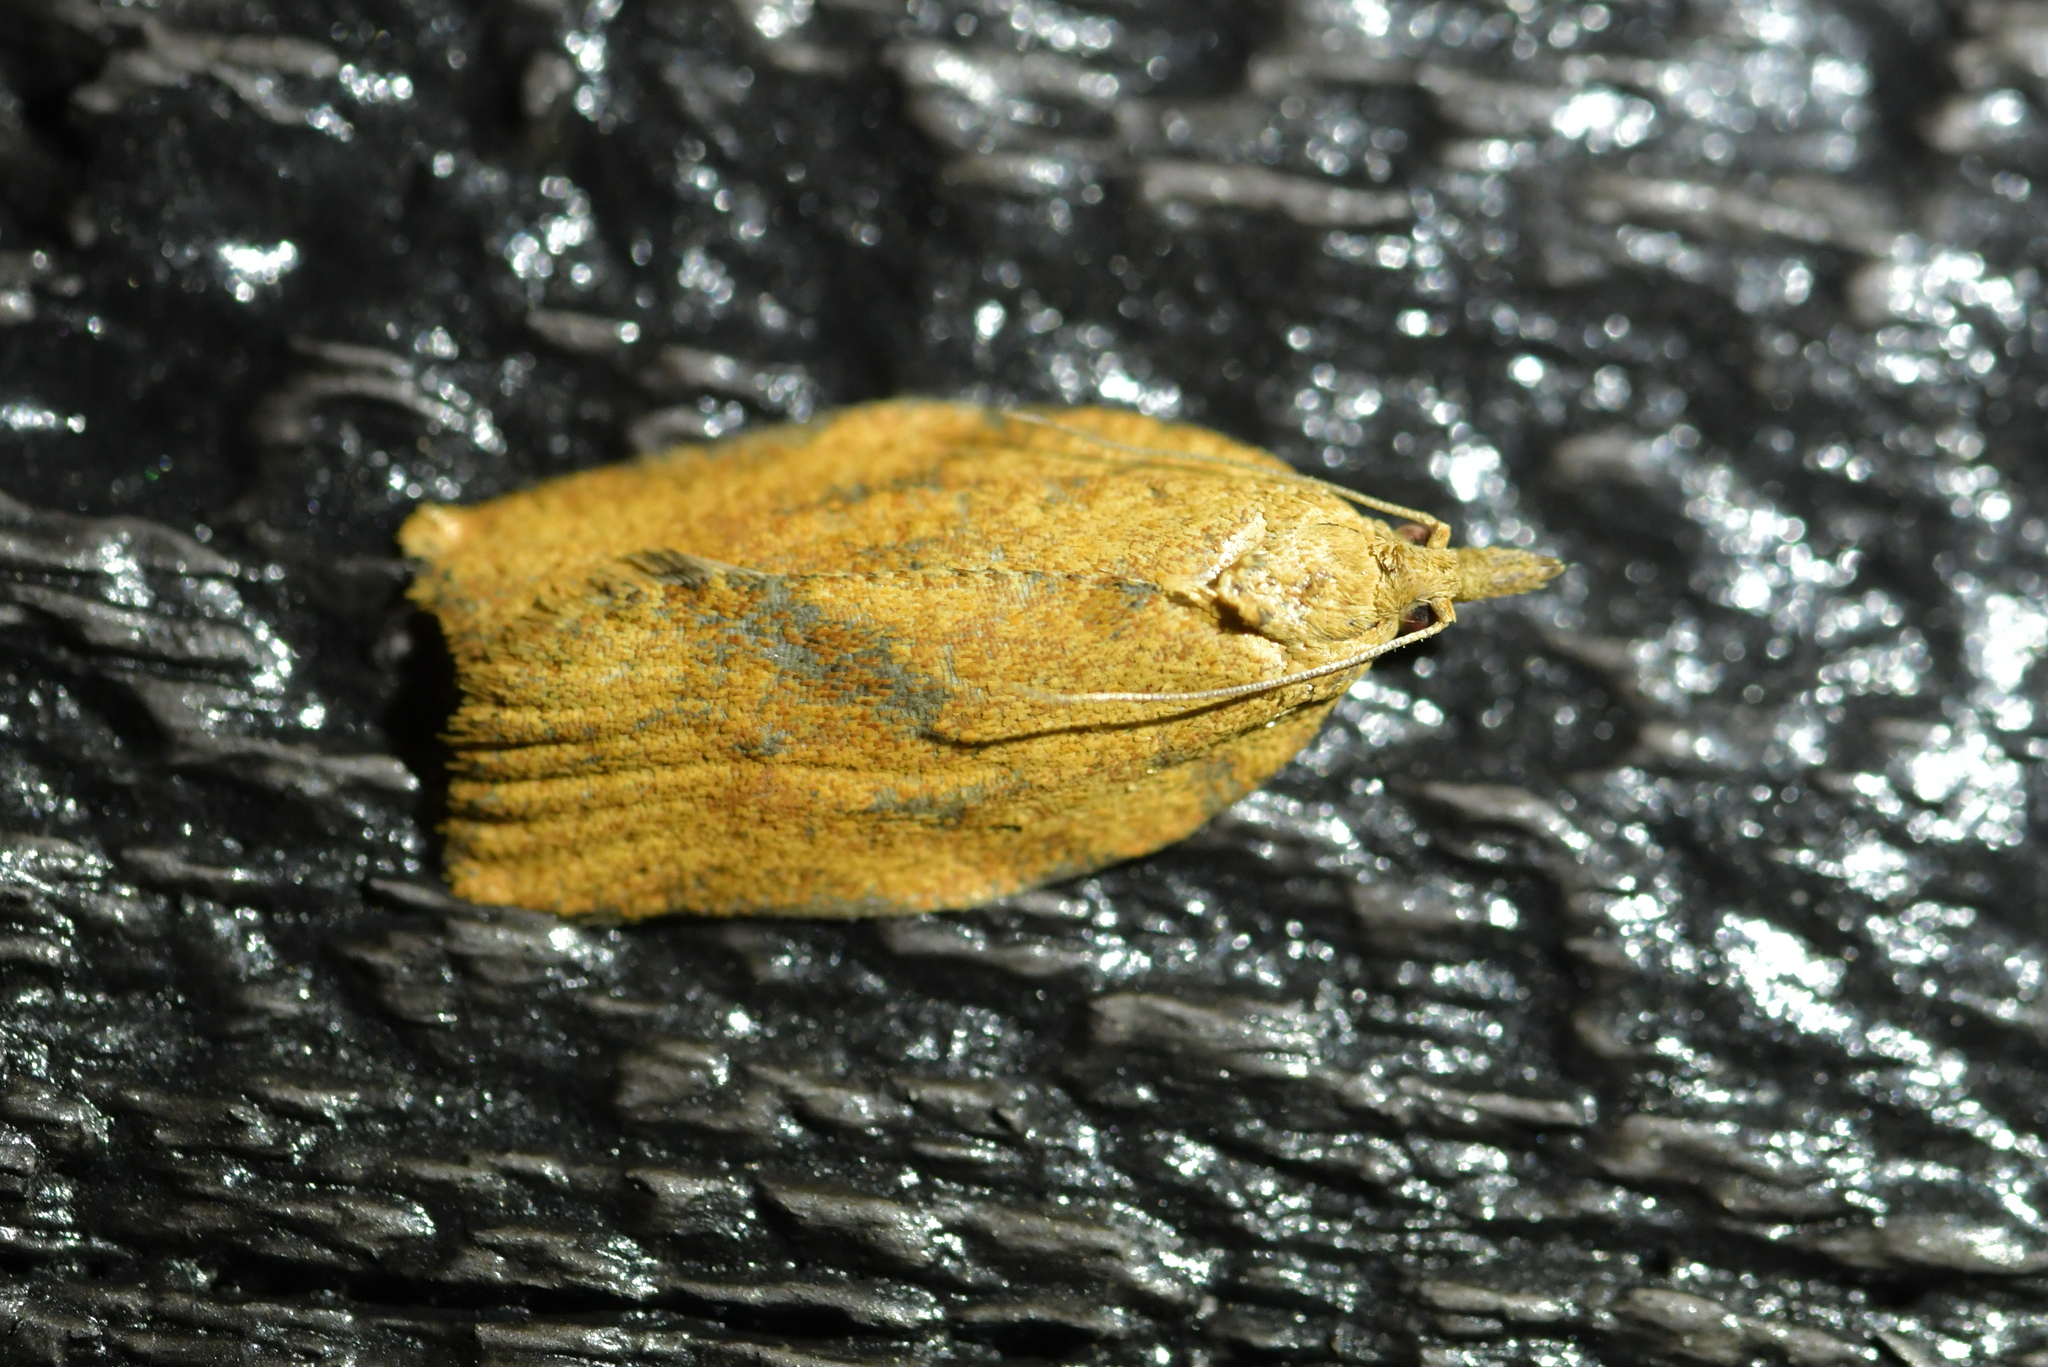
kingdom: Animalia
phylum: Arthropoda
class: Insecta
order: Lepidoptera
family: Tortricidae
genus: Epiphyas
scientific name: Epiphyas postvittana
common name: Light brown apple moth
